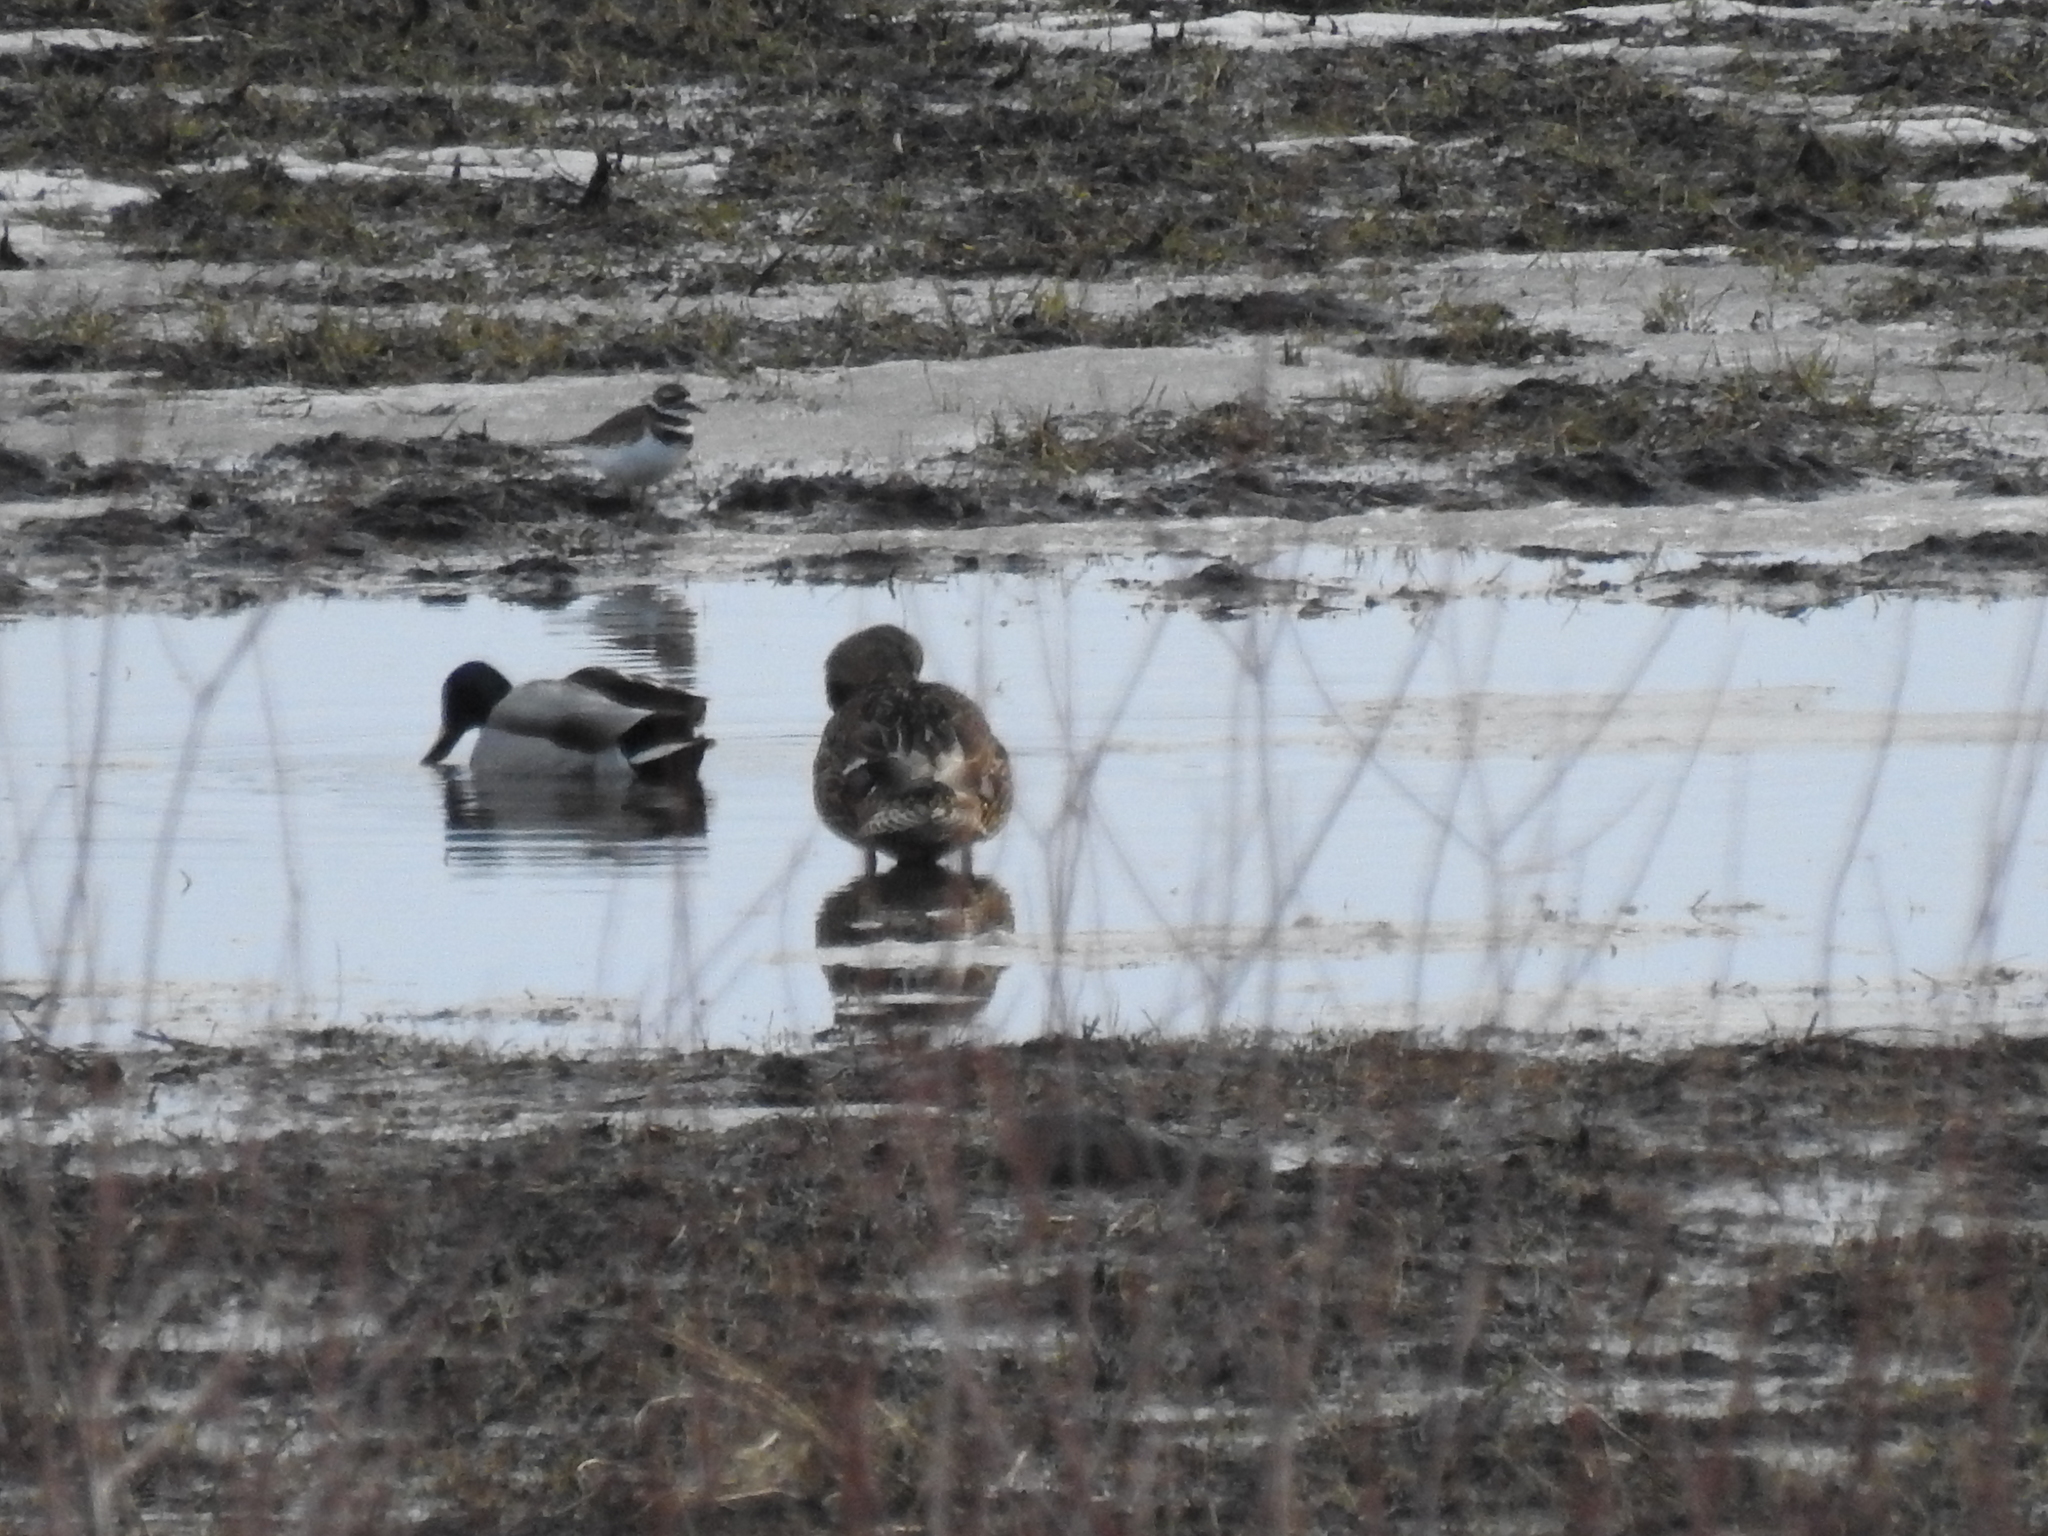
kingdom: Animalia
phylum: Chordata
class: Aves
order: Anseriformes
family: Anatidae
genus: Anas
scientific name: Anas platyrhynchos
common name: Mallard
